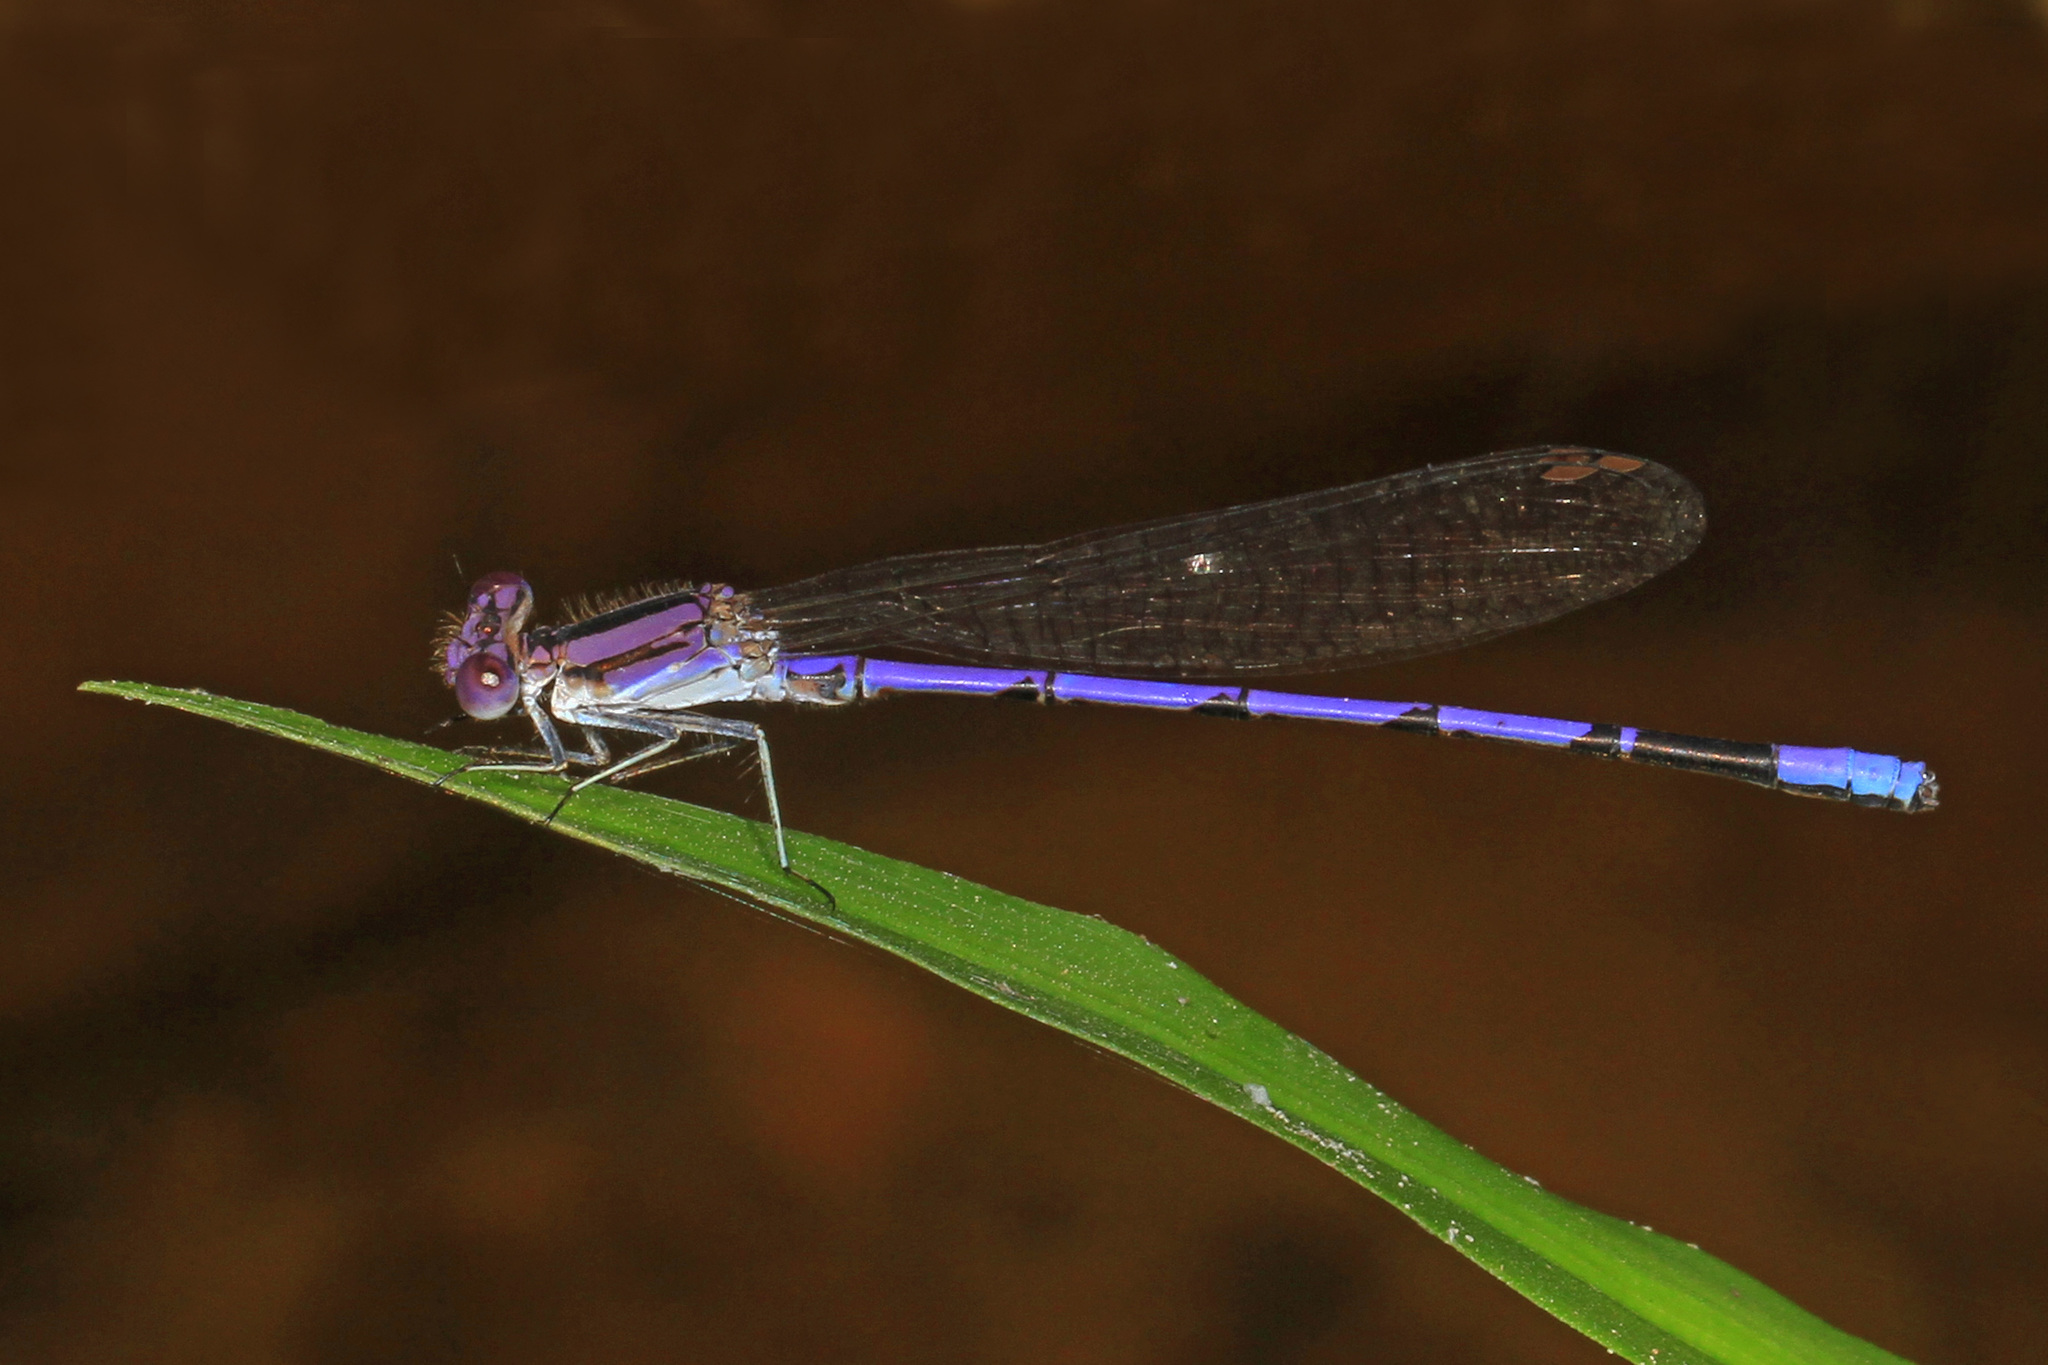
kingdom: Animalia
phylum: Arthropoda
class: Insecta
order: Odonata
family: Coenagrionidae
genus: Argia
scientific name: Argia fumipennis
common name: Variable dancer
